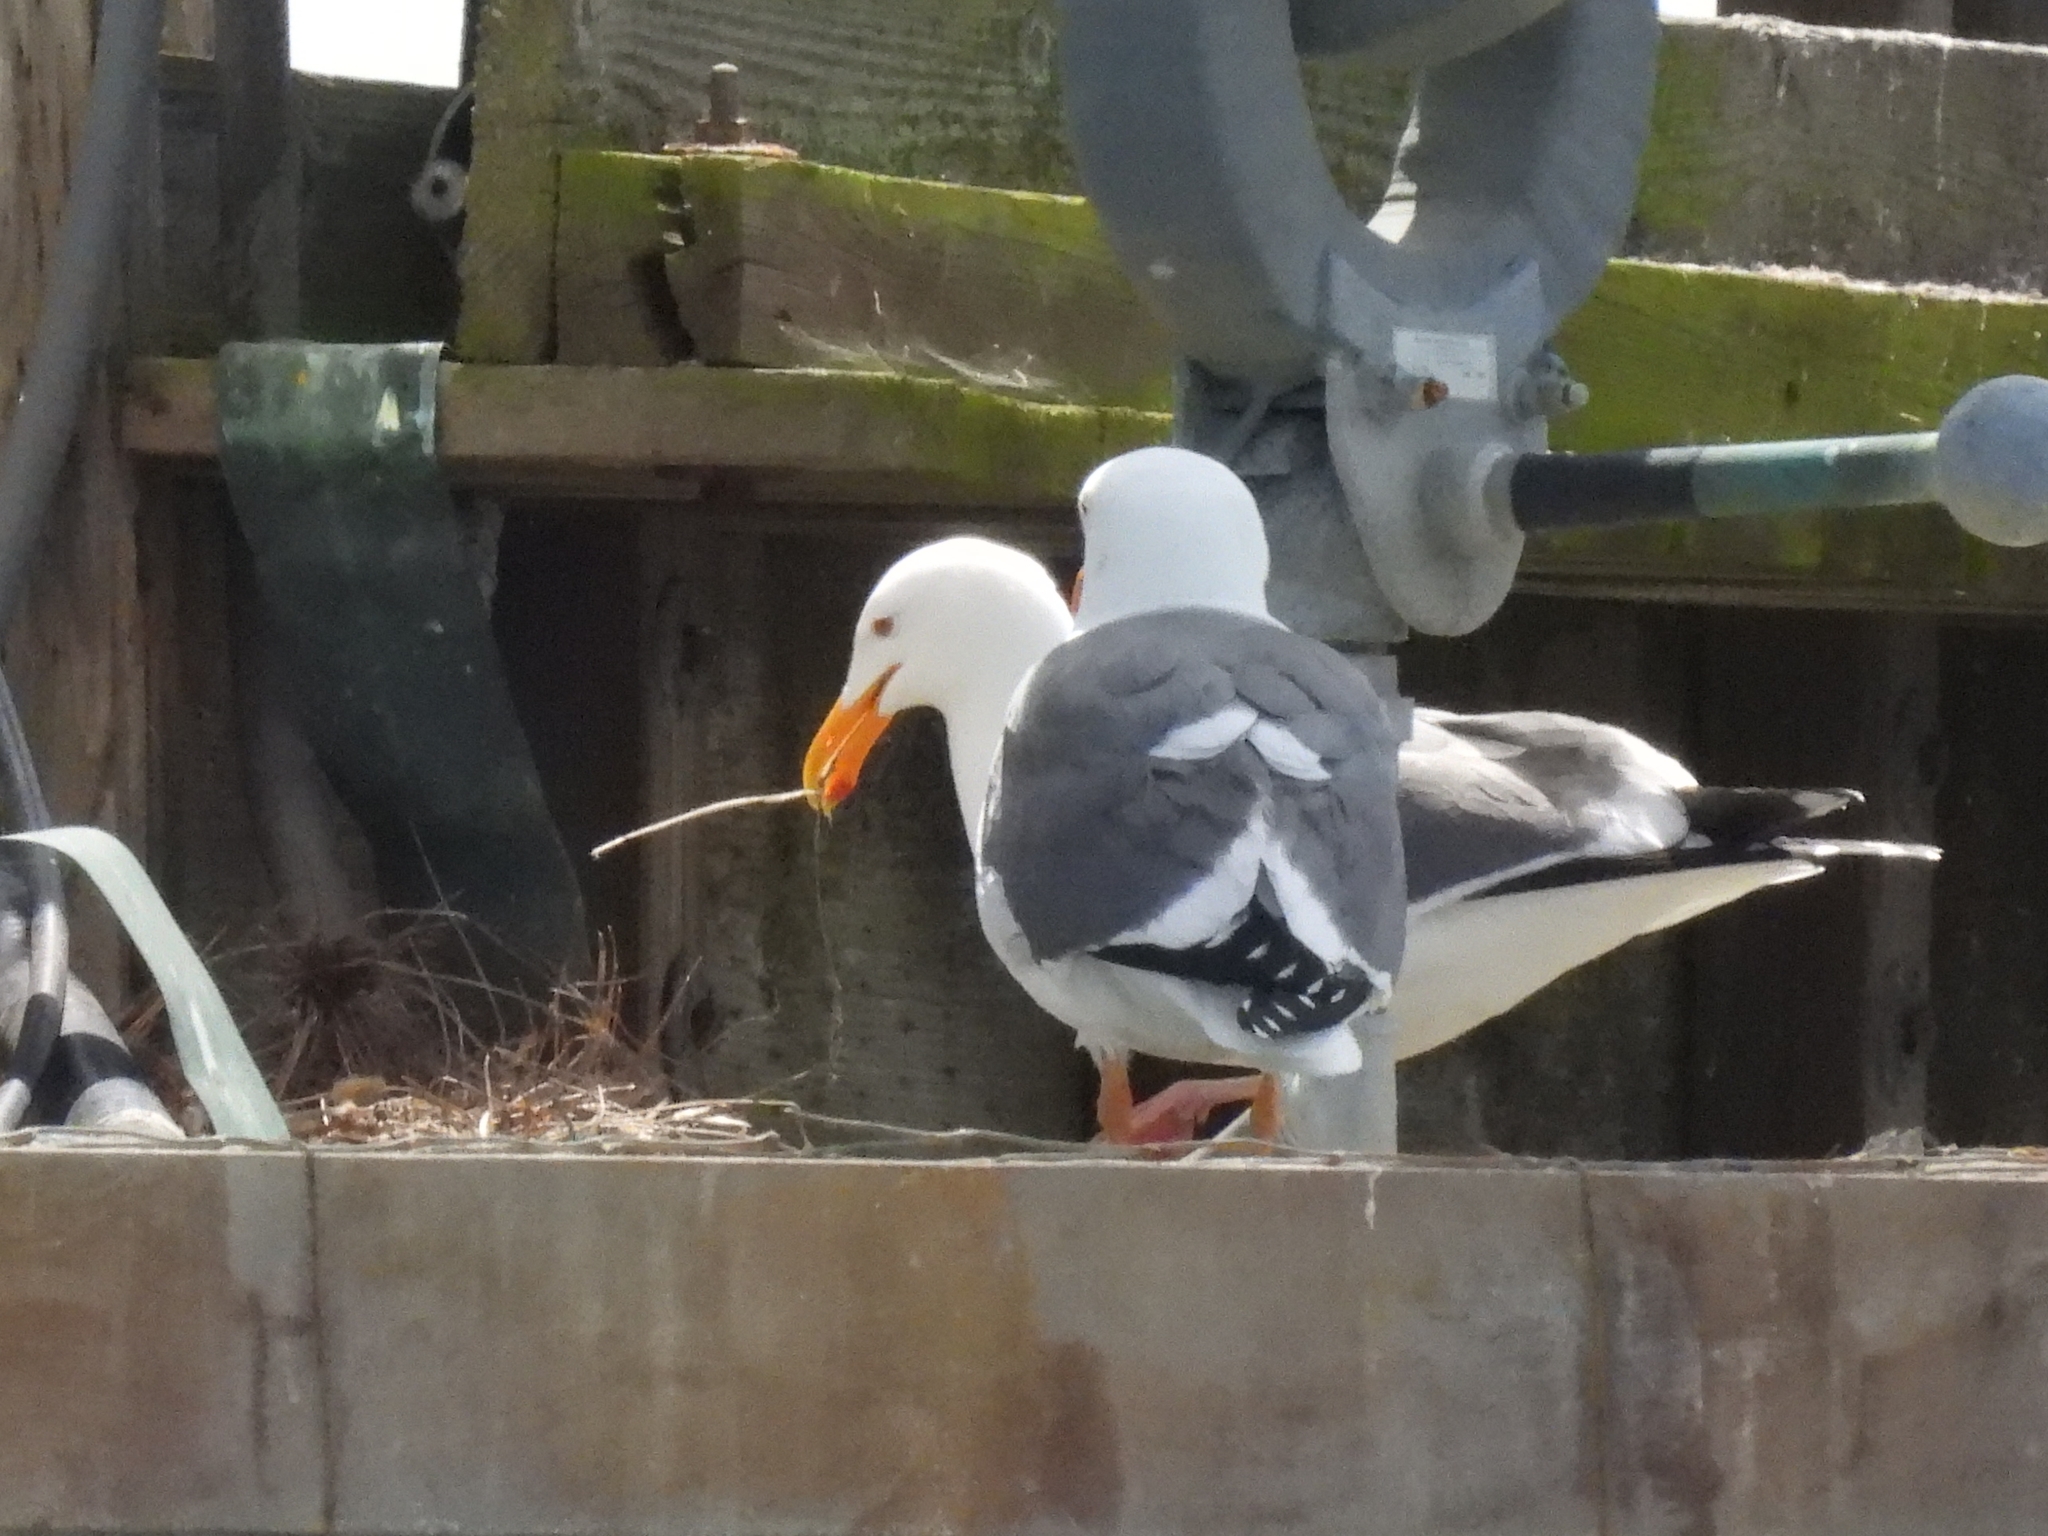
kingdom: Animalia
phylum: Chordata
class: Aves
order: Charadriiformes
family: Laridae
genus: Larus
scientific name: Larus occidentalis
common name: Western gull
